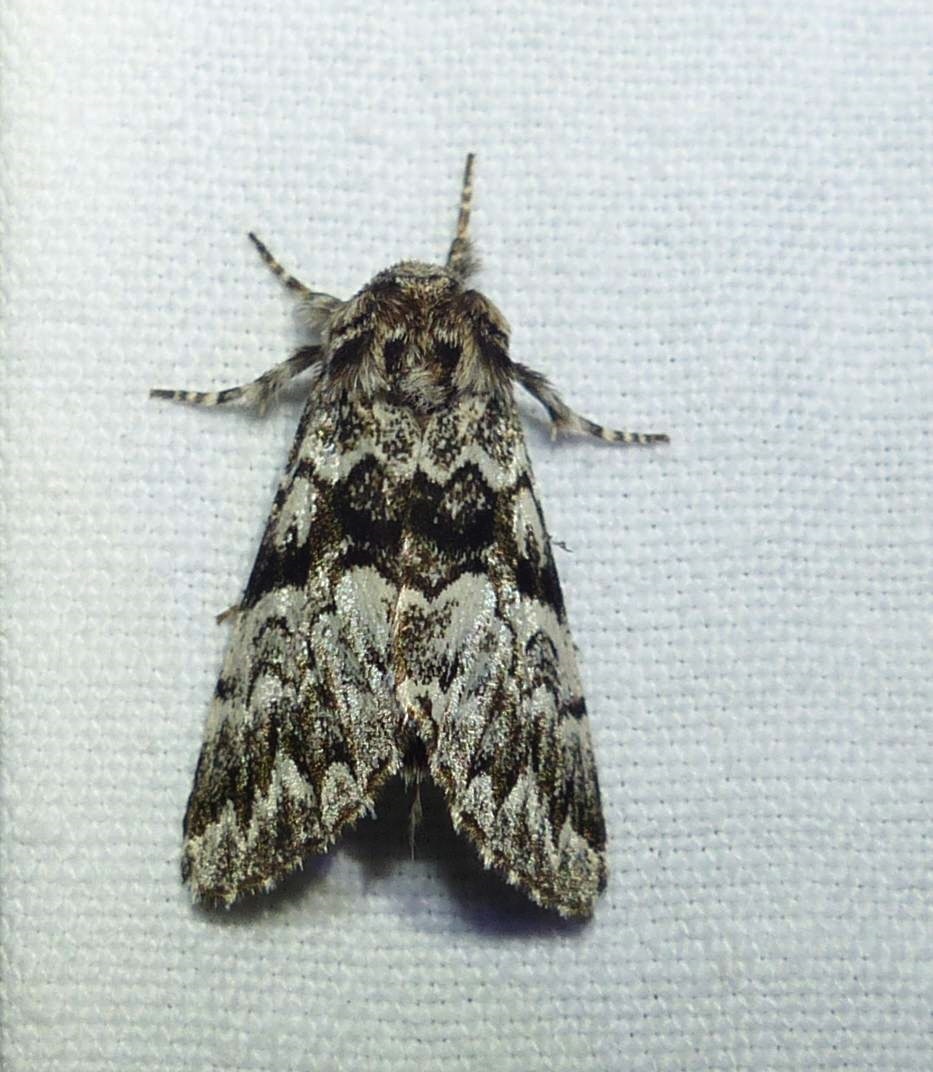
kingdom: Animalia
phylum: Arthropoda
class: Insecta
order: Lepidoptera
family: Noctuidae
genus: Panthea
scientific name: Panthea acronyctoides
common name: Black zigzag moth
